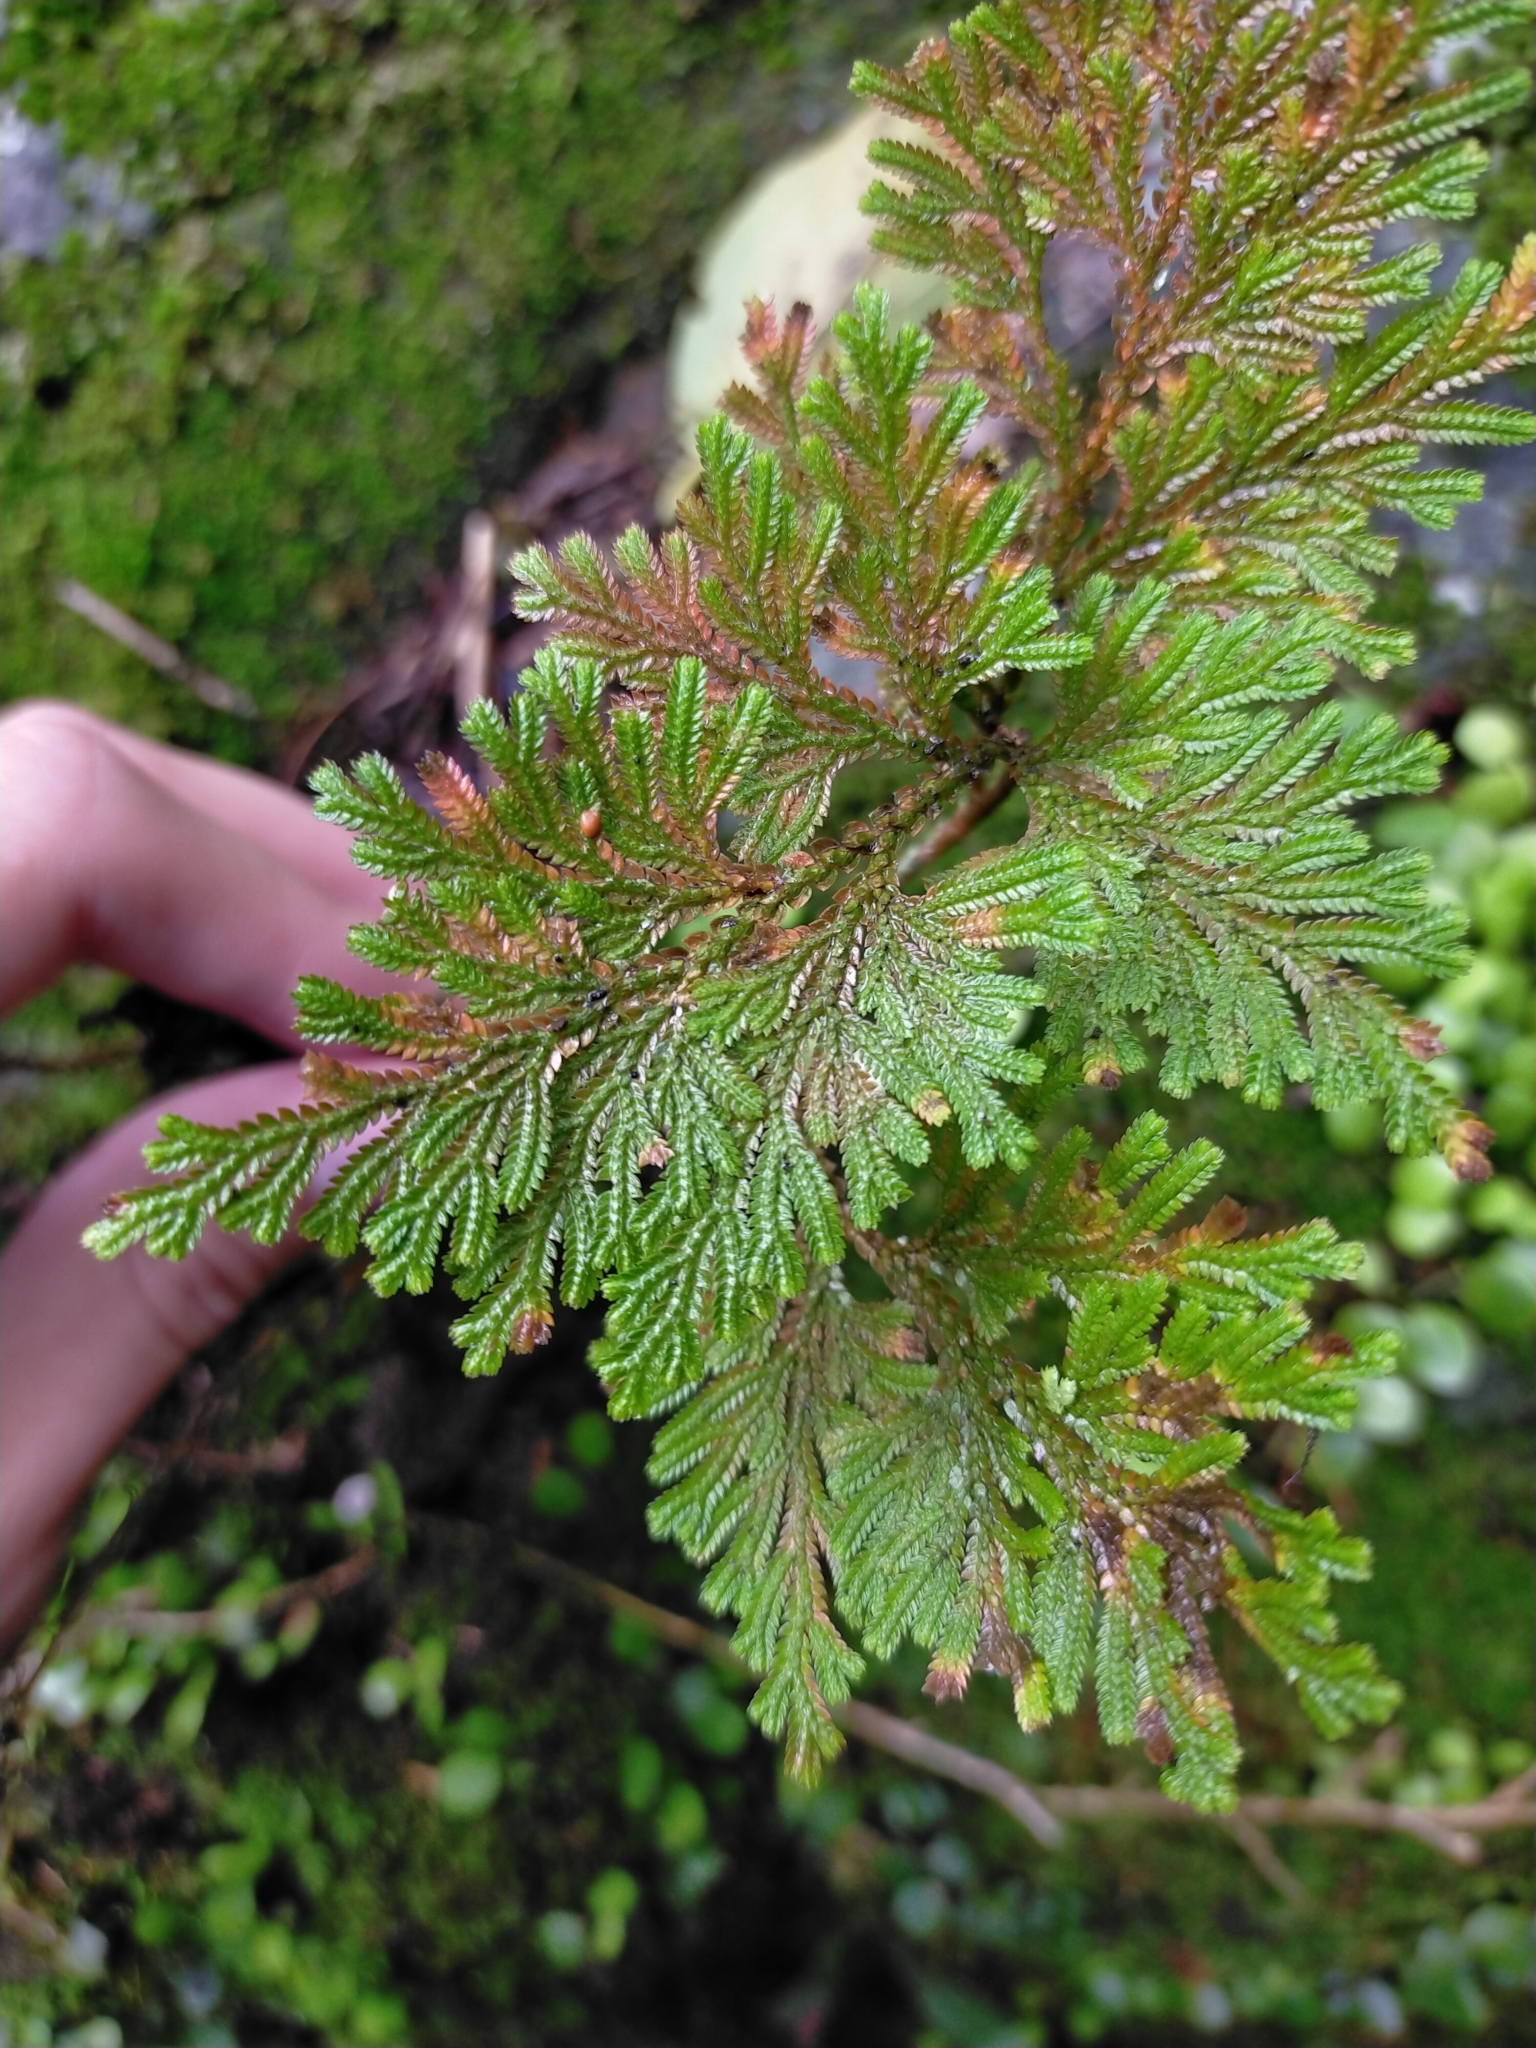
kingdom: Plantae
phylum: Tracheophyta
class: Lycopodiopsida
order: Selaginellales
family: Selaginellaceae
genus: Selaginella
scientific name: Selaginella involvens
